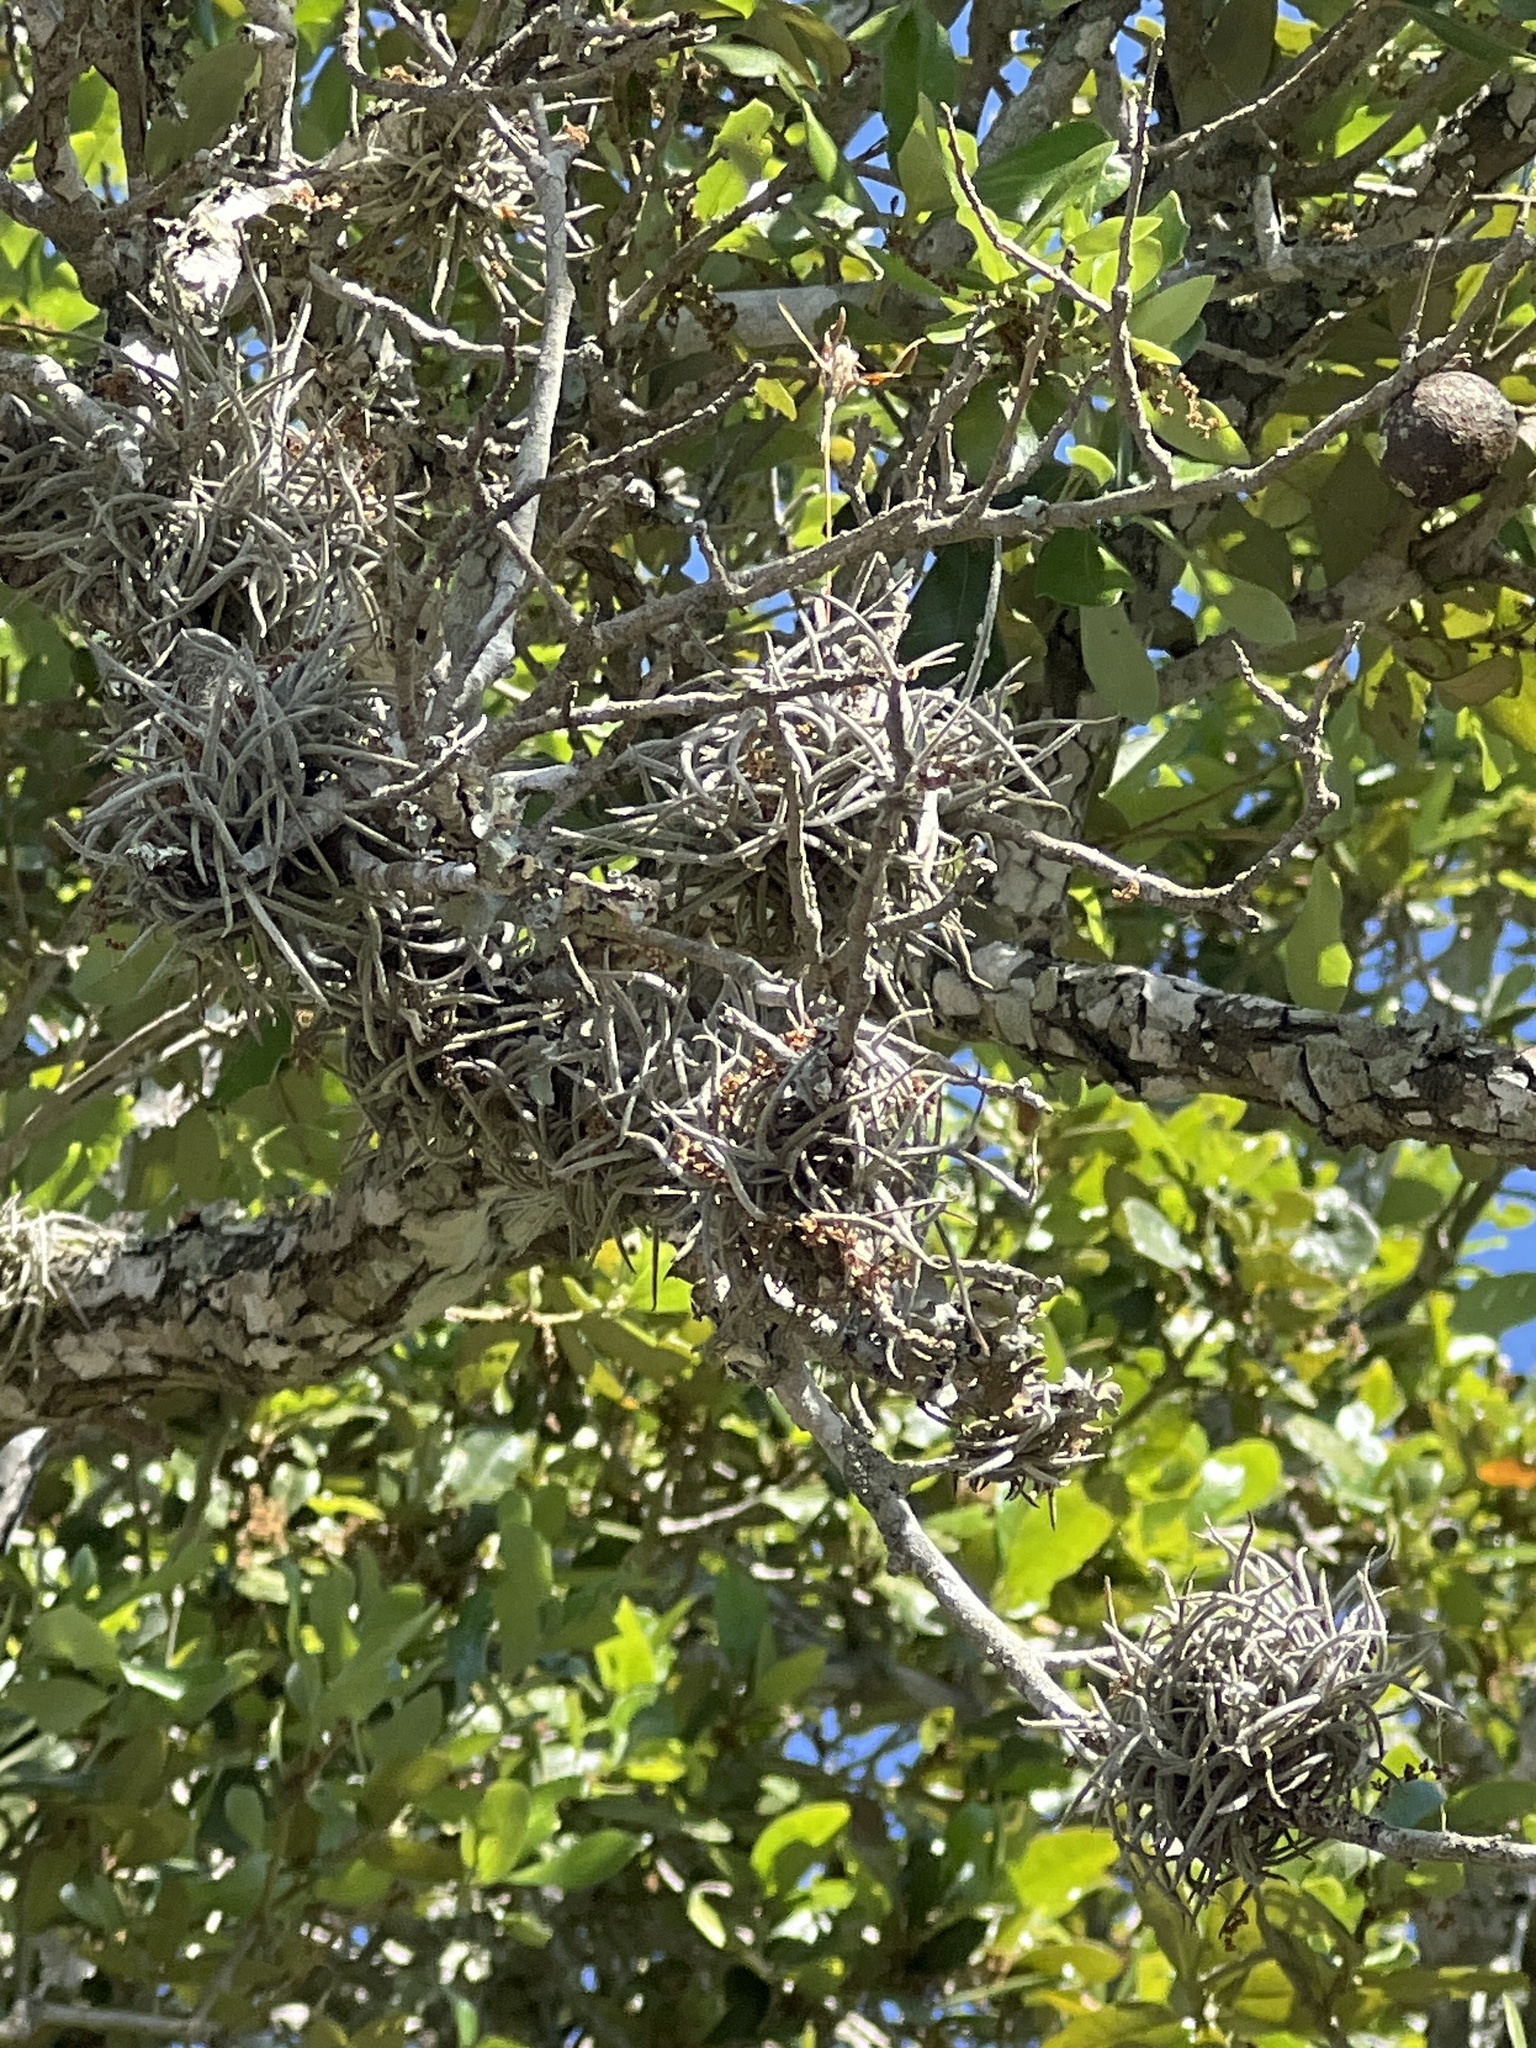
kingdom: Plantae
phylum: Tracheophyta
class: Liliopsida
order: Poales
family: Bromeliaceae
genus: Tillandsia
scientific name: Tillandsia recurvata
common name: Small ballmoss
